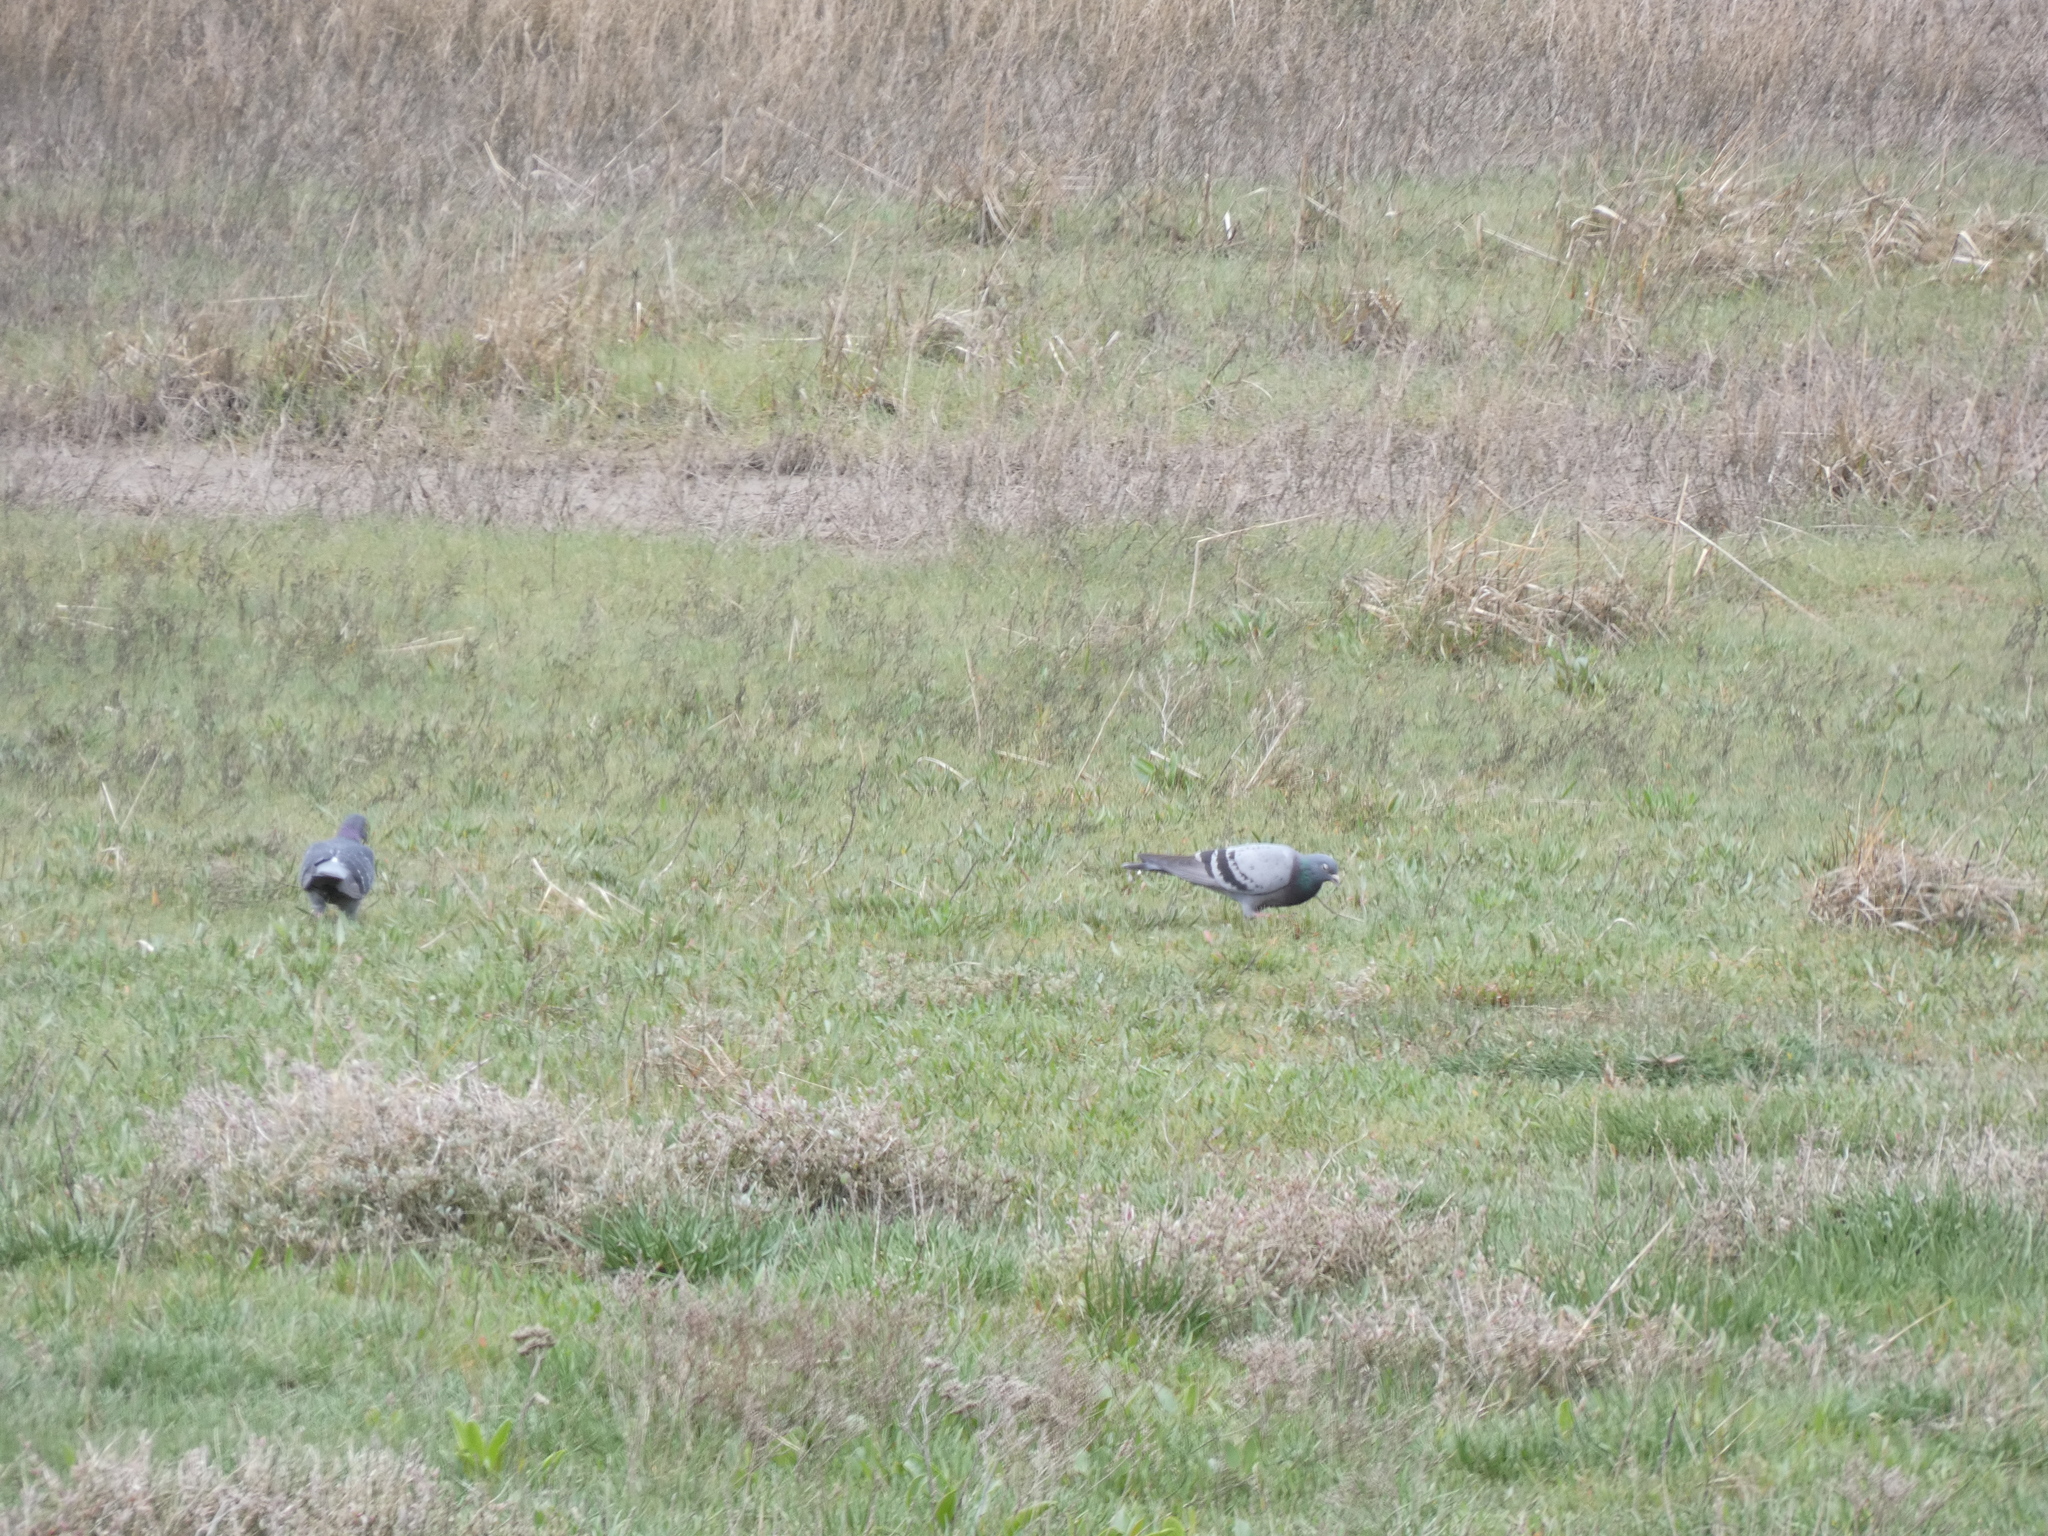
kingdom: Animalia
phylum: Chordata
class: Aves
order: Columbiformes
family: Columbidae
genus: Columba
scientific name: Columba livia
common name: Rock pigeon
